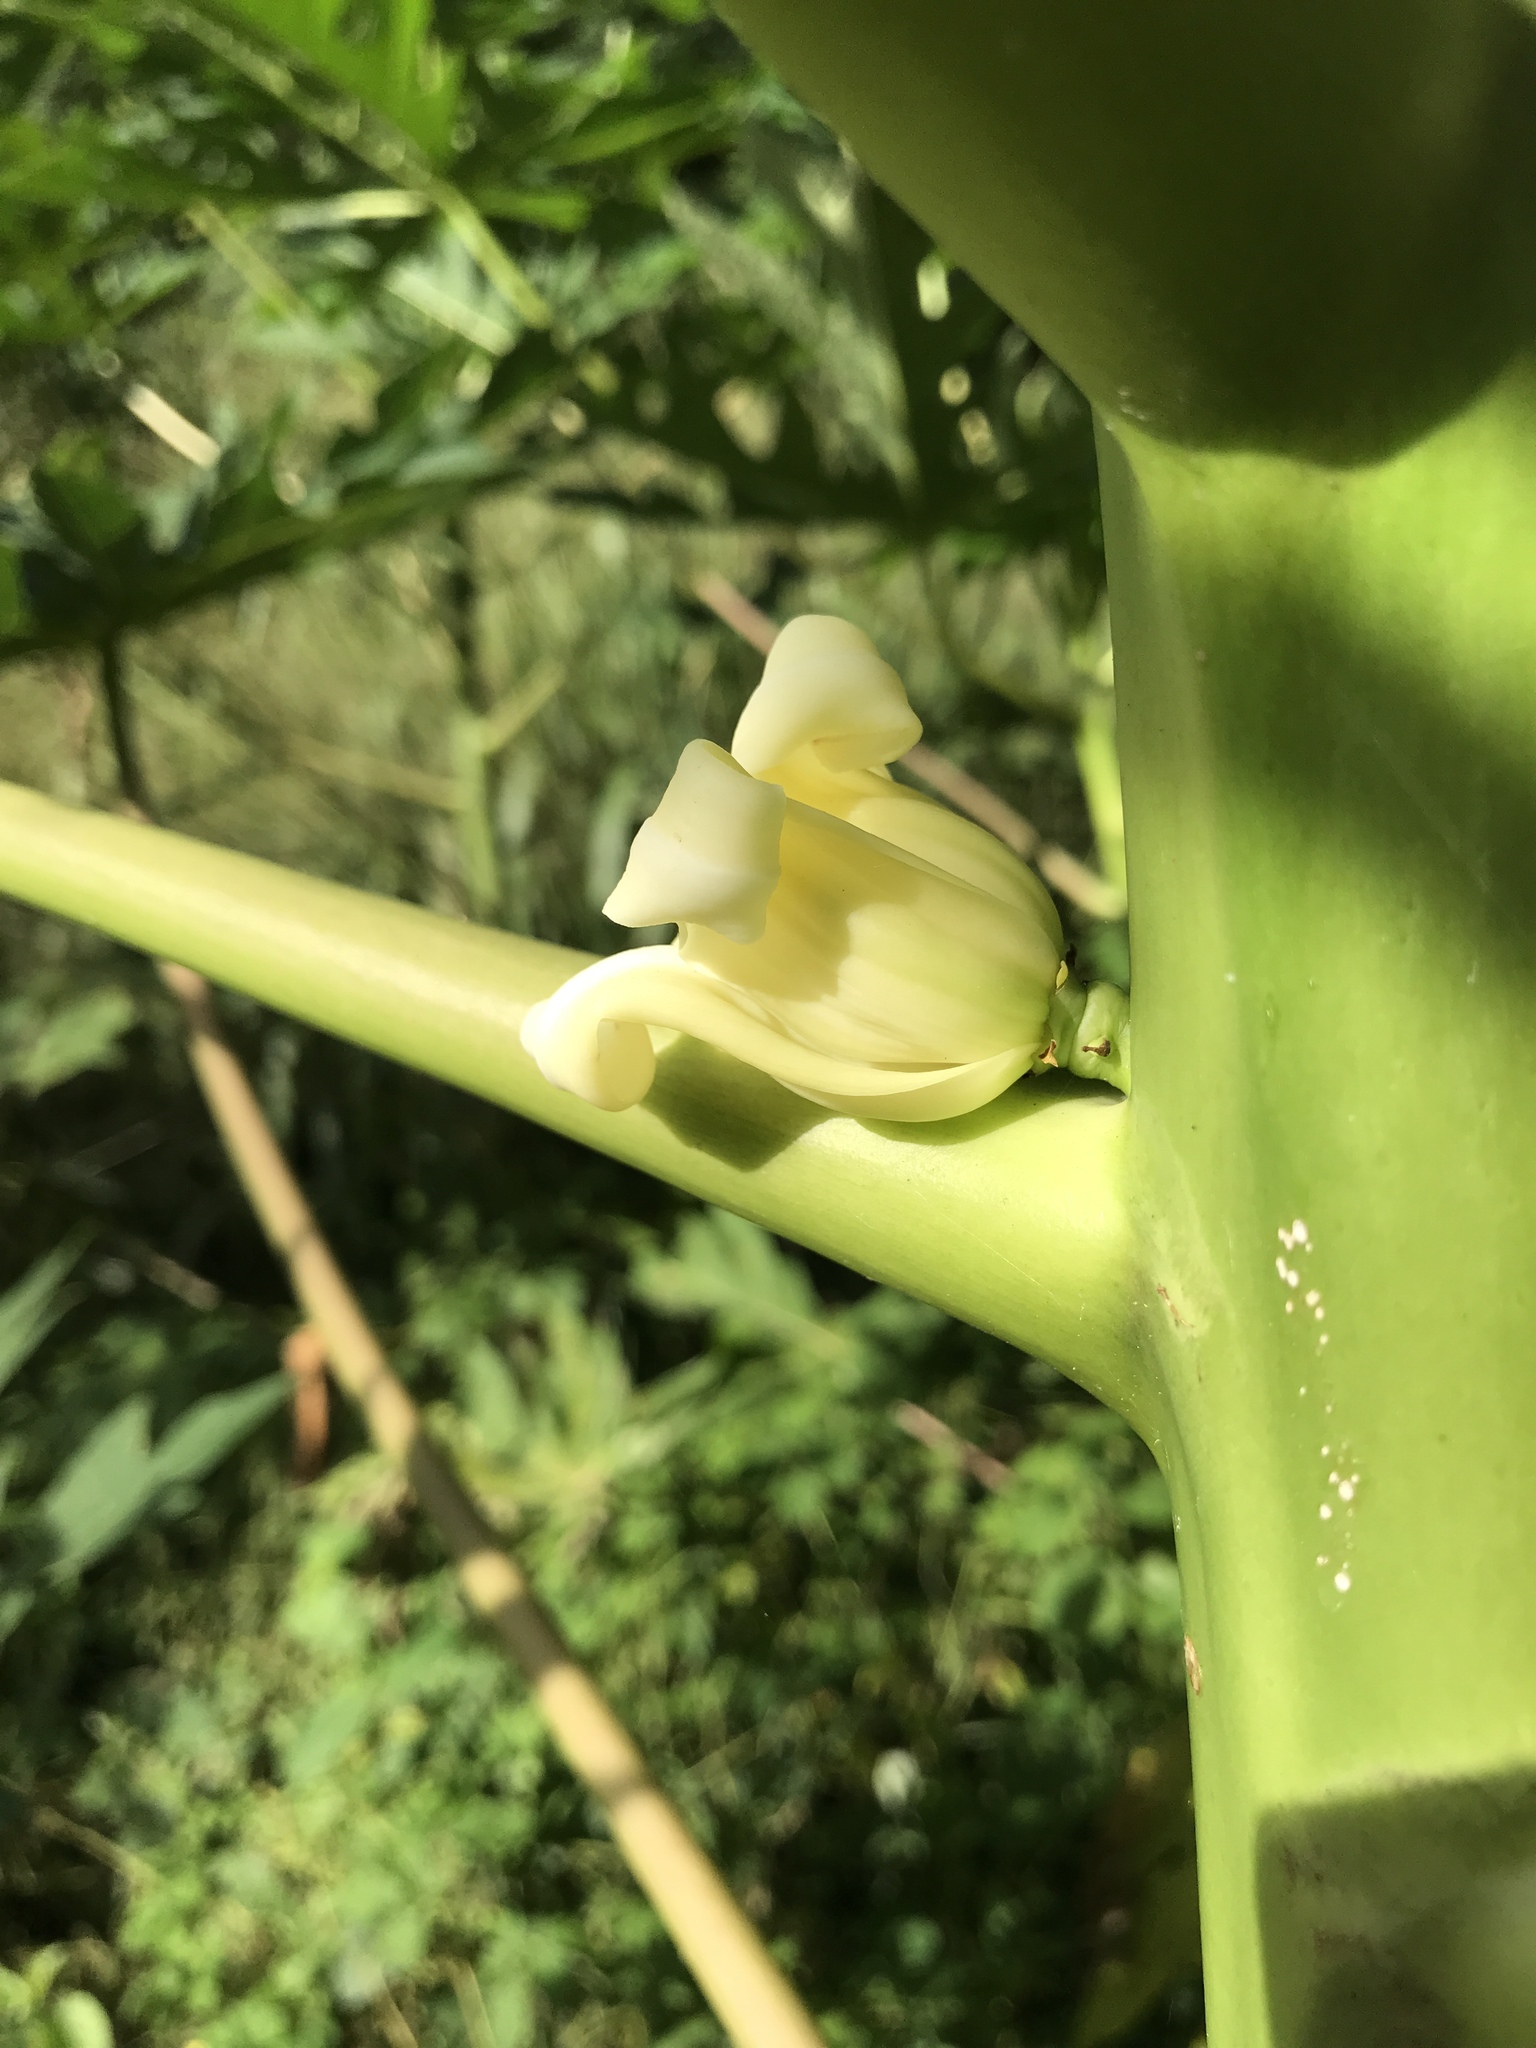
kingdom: Plantae
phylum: Tracheophyta
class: Magnoliopsida
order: Brassicales
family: Caricaceae
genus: Carica
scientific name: Carica papaya
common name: Papaya
